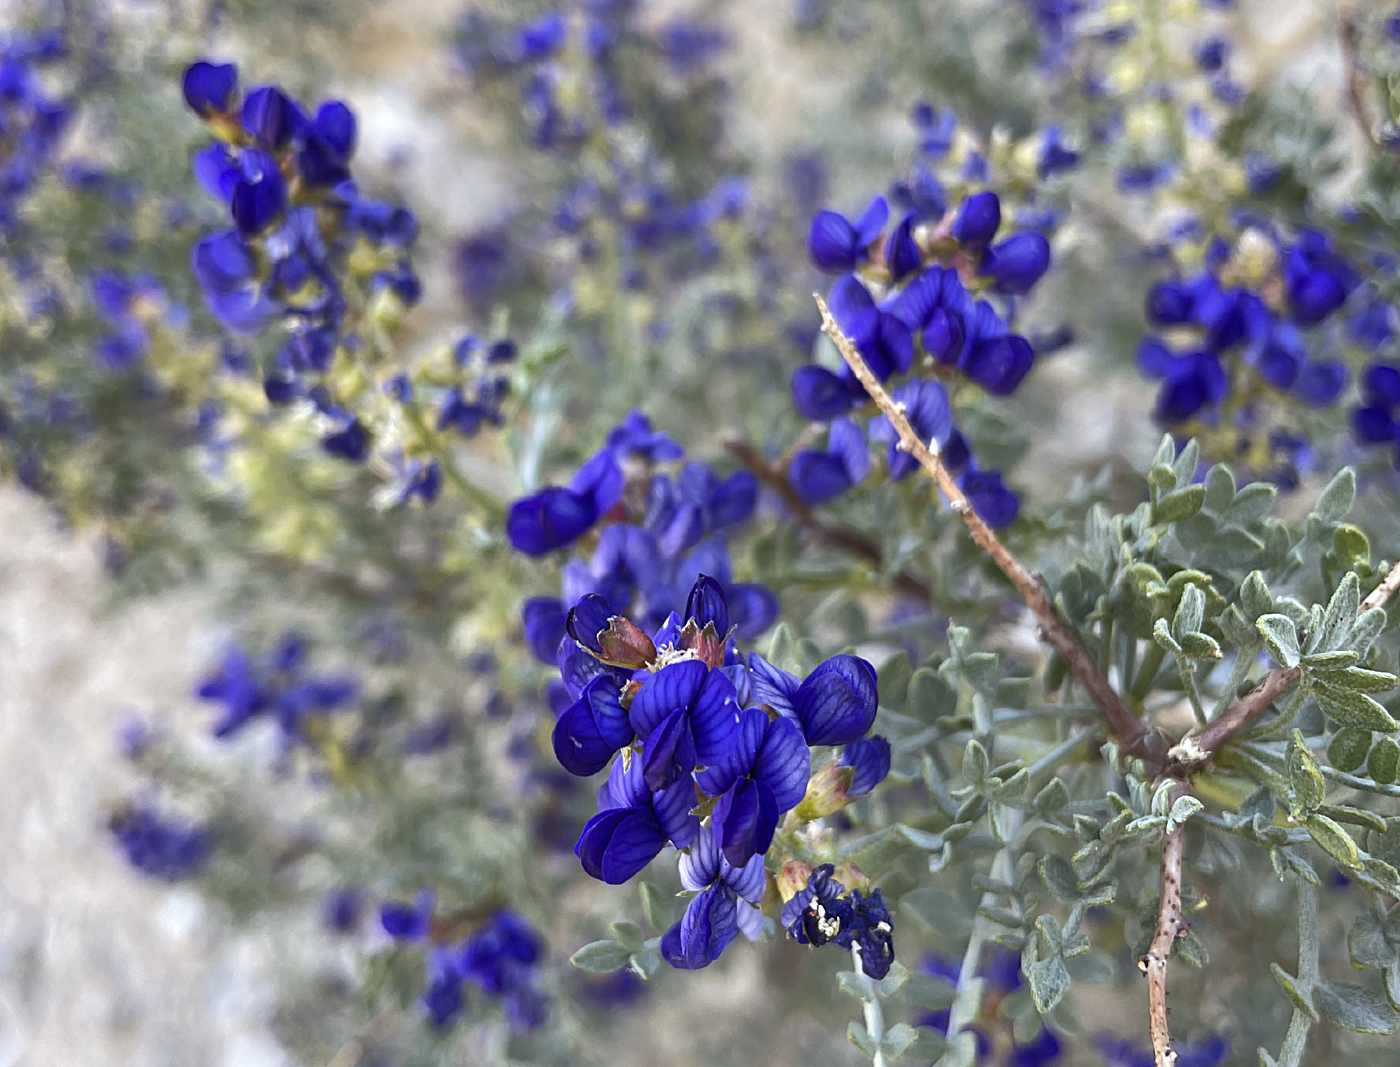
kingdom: Plantae
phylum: Tracheophyta
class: Magnoliopsida
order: Fabales
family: Fabaceae
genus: Psorothamnus
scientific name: Psorothamnus arborescens
